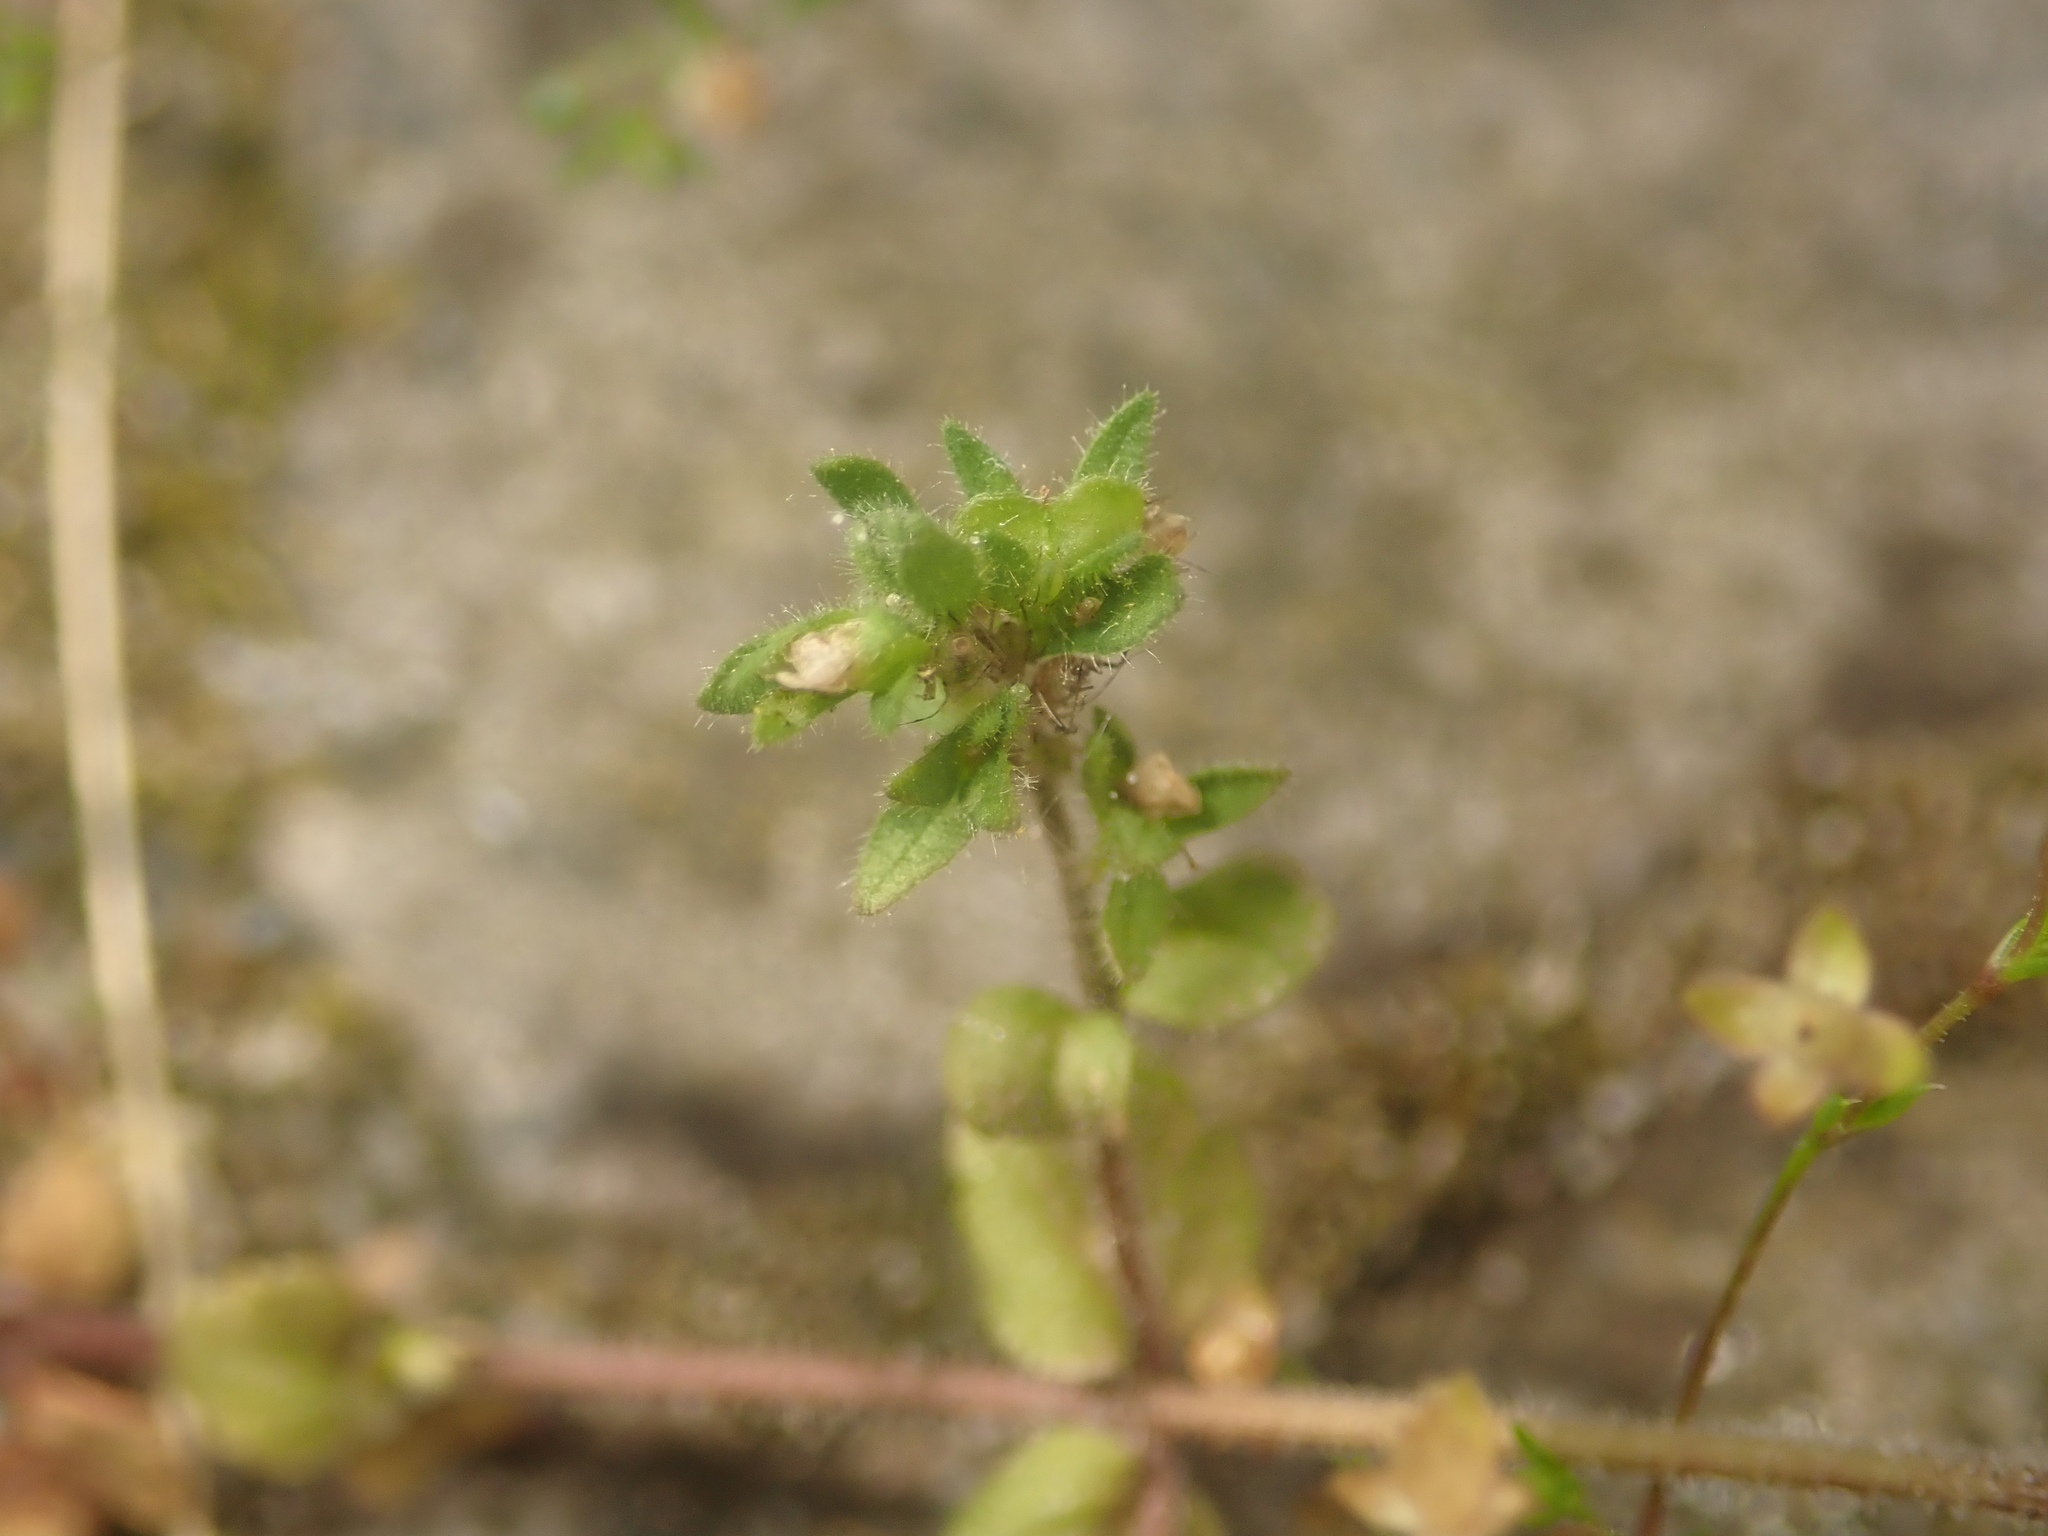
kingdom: Plantae
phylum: Tracheophyta
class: Magnoliopsida
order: Lamiales
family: Plantaginaceae
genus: Veronica
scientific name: Veronica arvensis
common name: Corn speedwell
